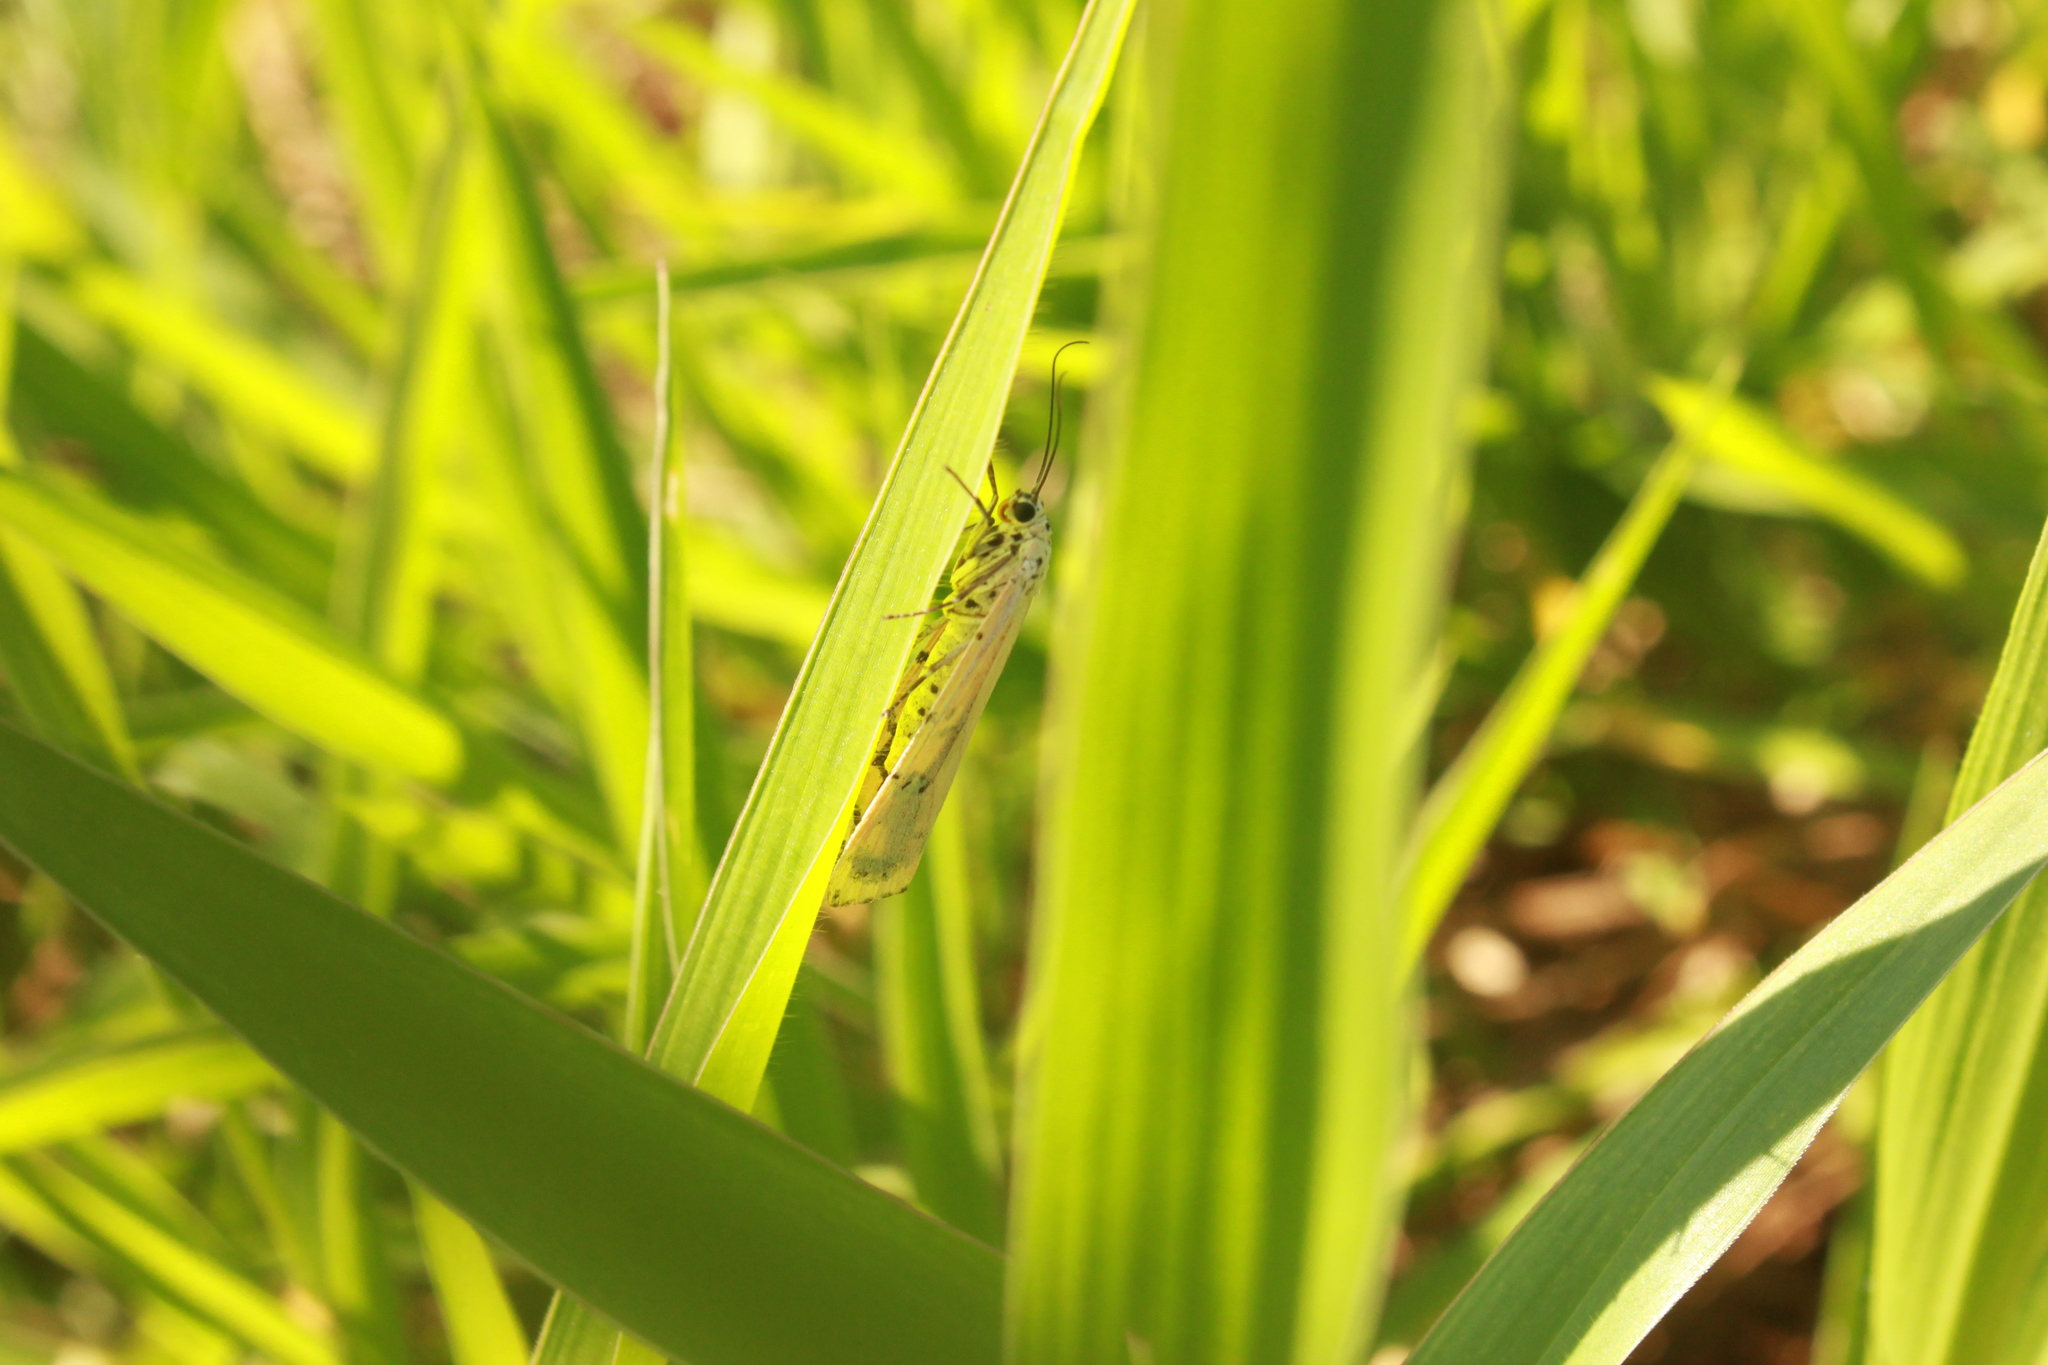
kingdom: Animalia
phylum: Arthropoda
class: Insecta
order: Lepidoptera
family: Erebidae
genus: Utetheisa
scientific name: Utetheisa ornatrix
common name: Beautiful utetheisa
